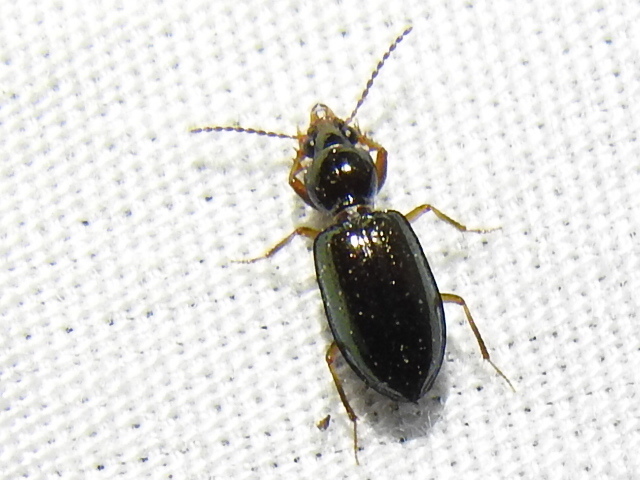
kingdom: Animalia
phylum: Arthropoda
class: Insecta
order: Coleoptera
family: Carabidae
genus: Semiardistomis
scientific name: Semiardistomis viridis
